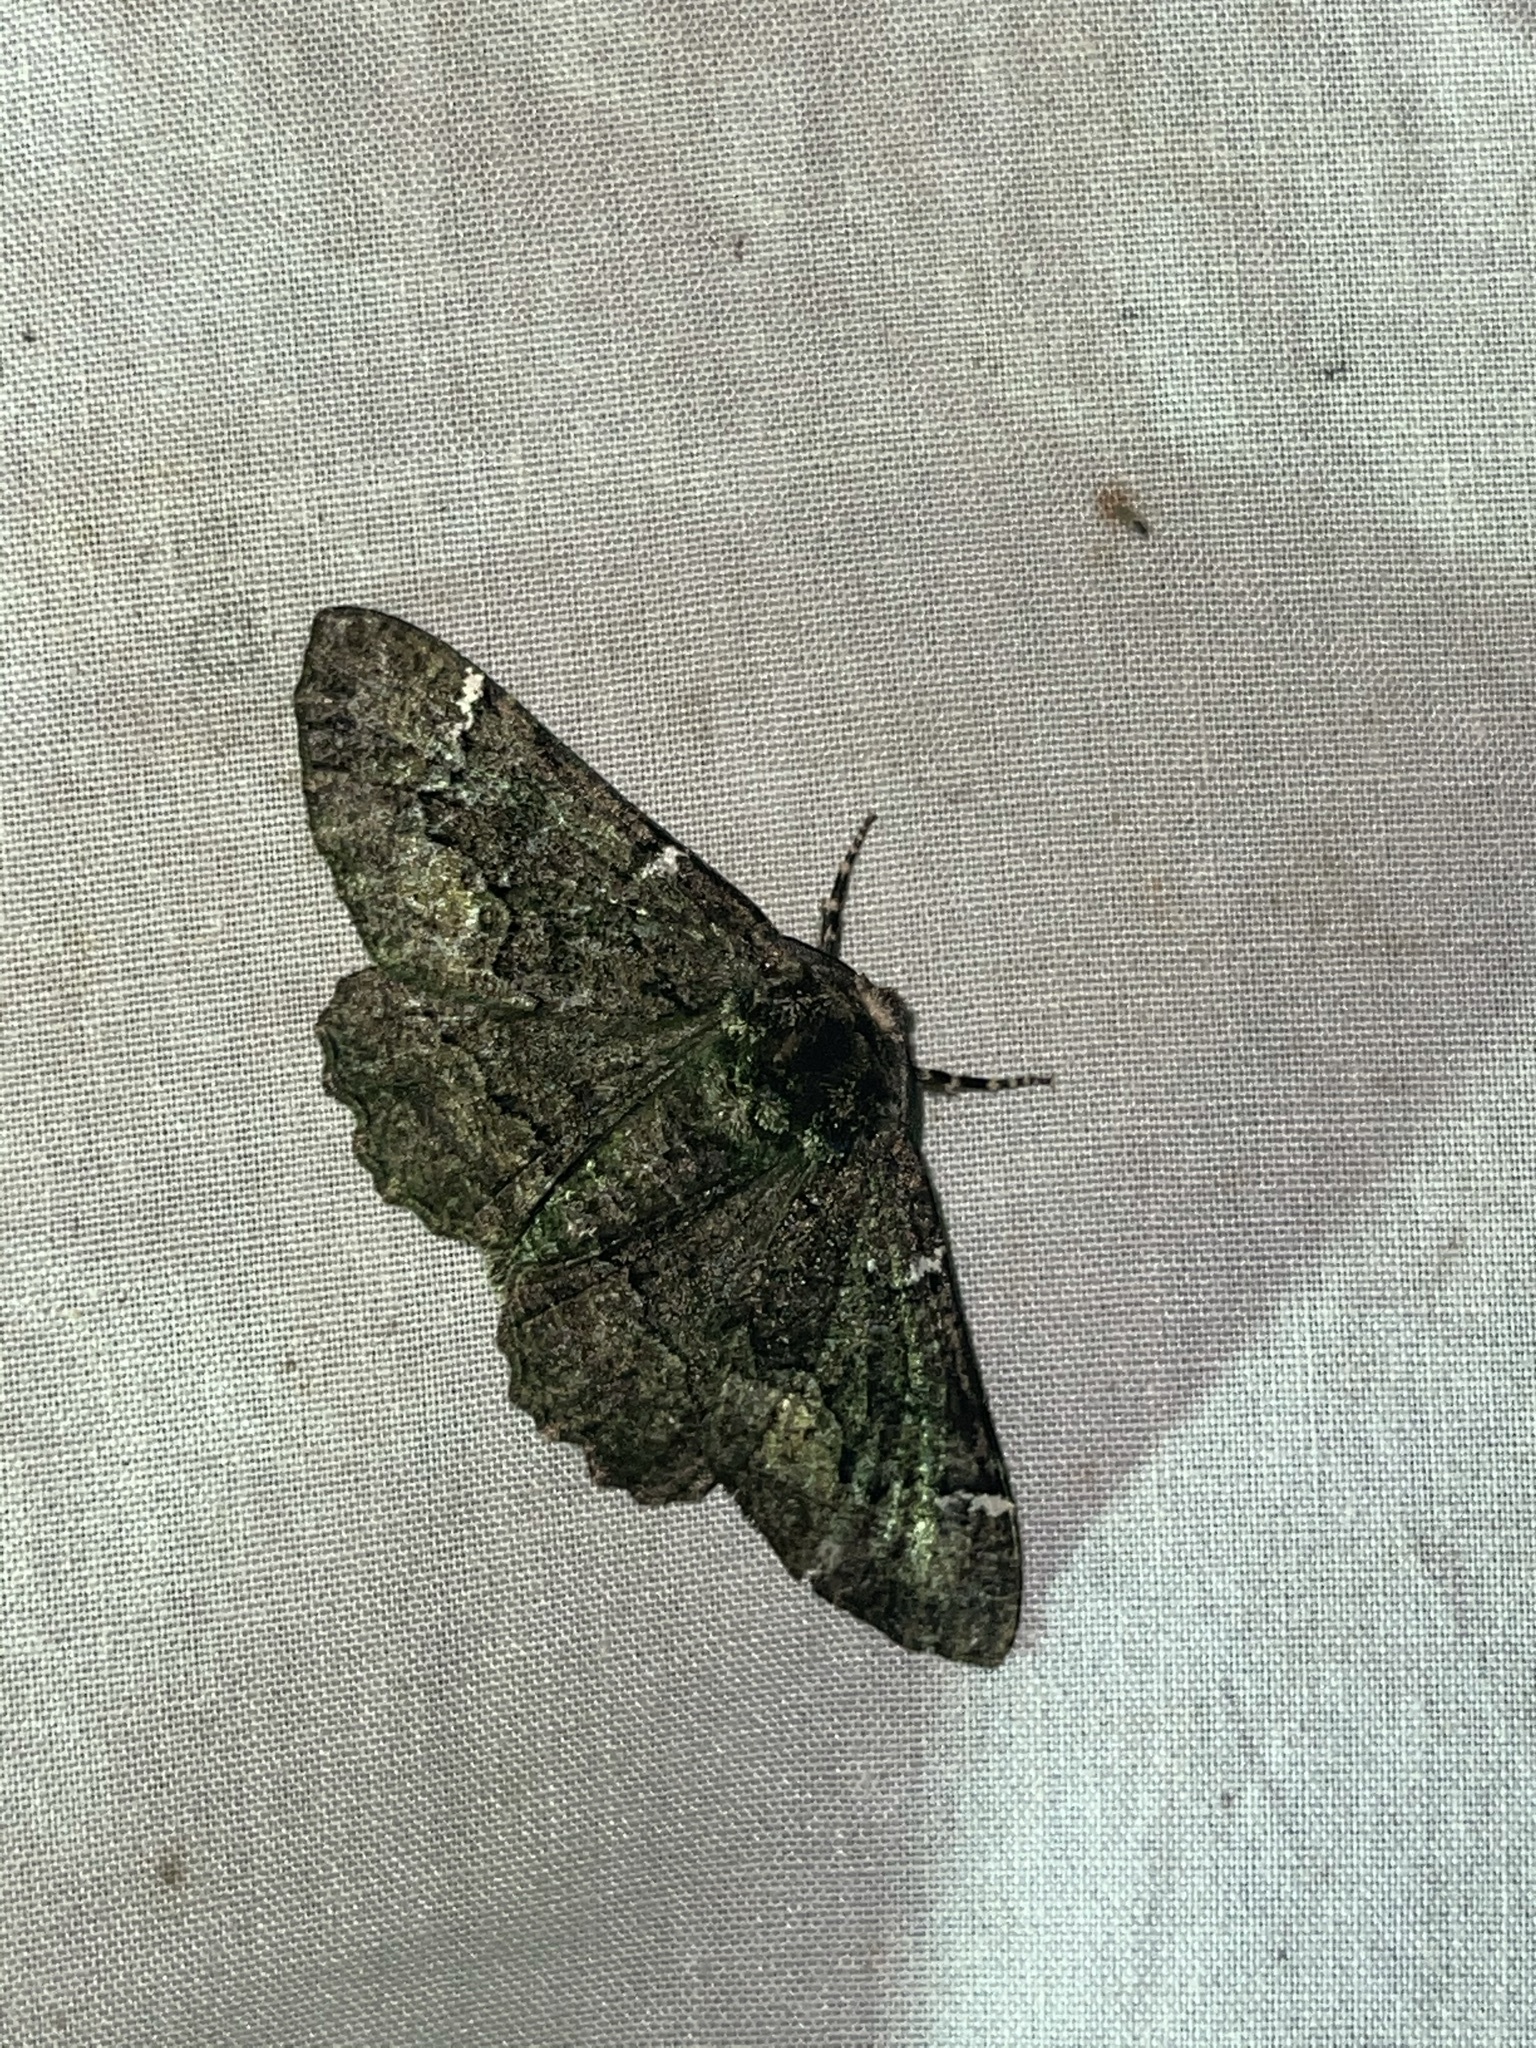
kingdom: Animalia
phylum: Arthropoda
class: Insecta
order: Lepidoptera
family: Geometridae
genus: Phaeoura
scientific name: Phaeoura quernaria
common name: Oak beauty
